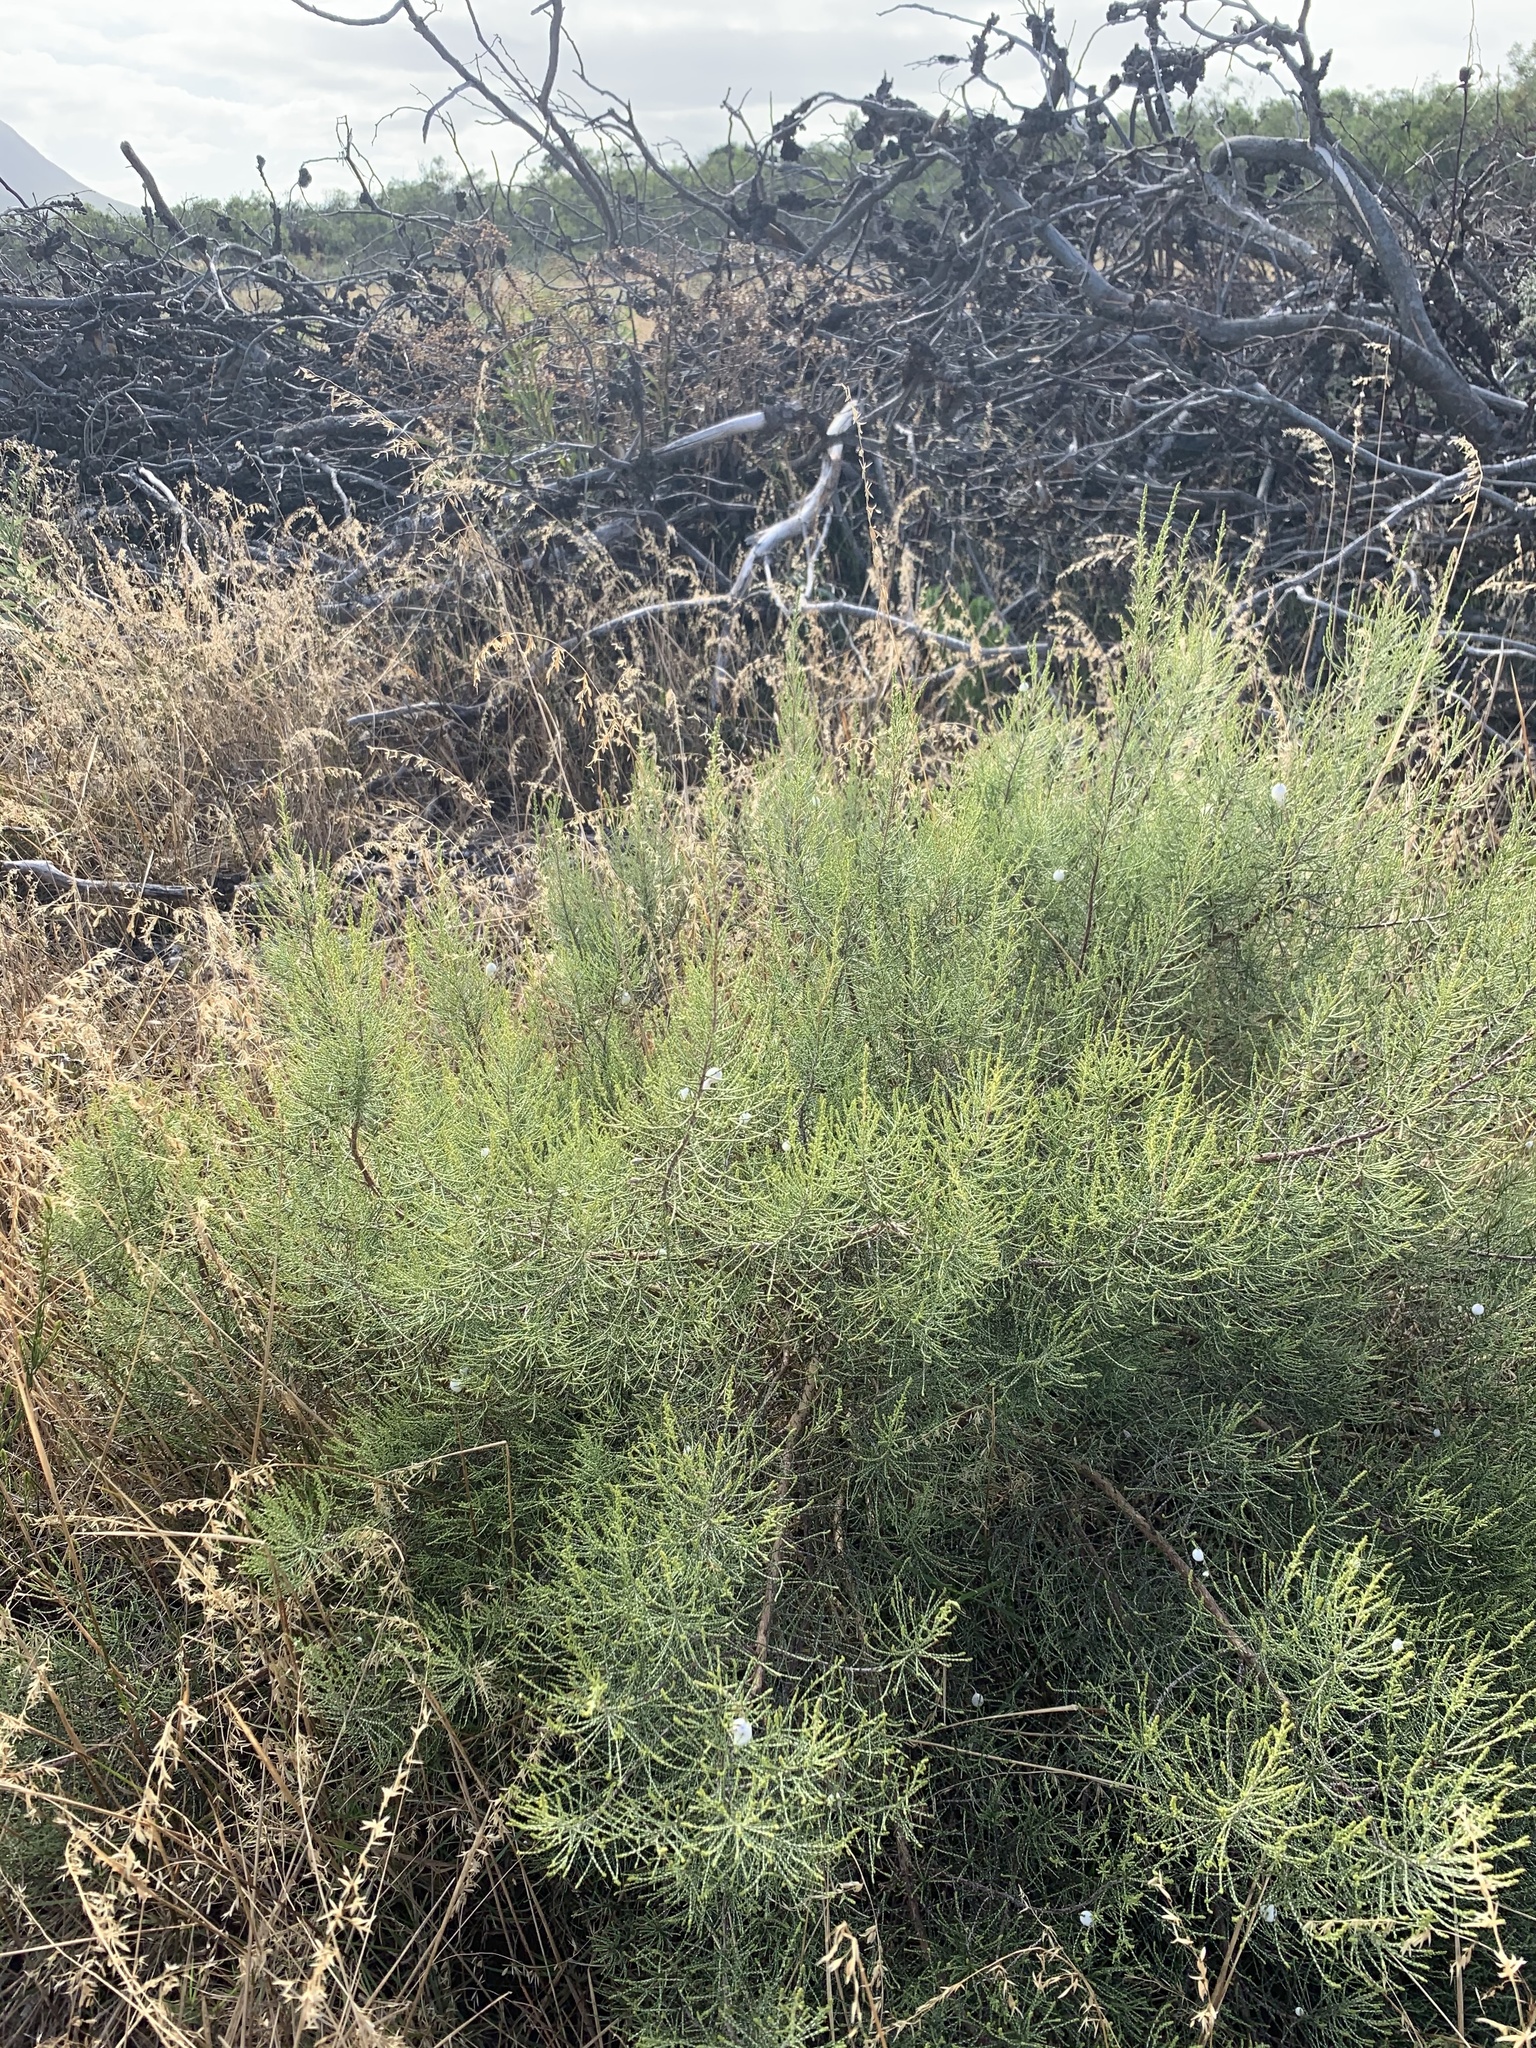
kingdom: Plantae
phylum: Tracheophyta
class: Magnoliopsida
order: Asterales
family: Asteraceae
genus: Dicerothamnus
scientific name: Dicerothamnus rhinocerotis
